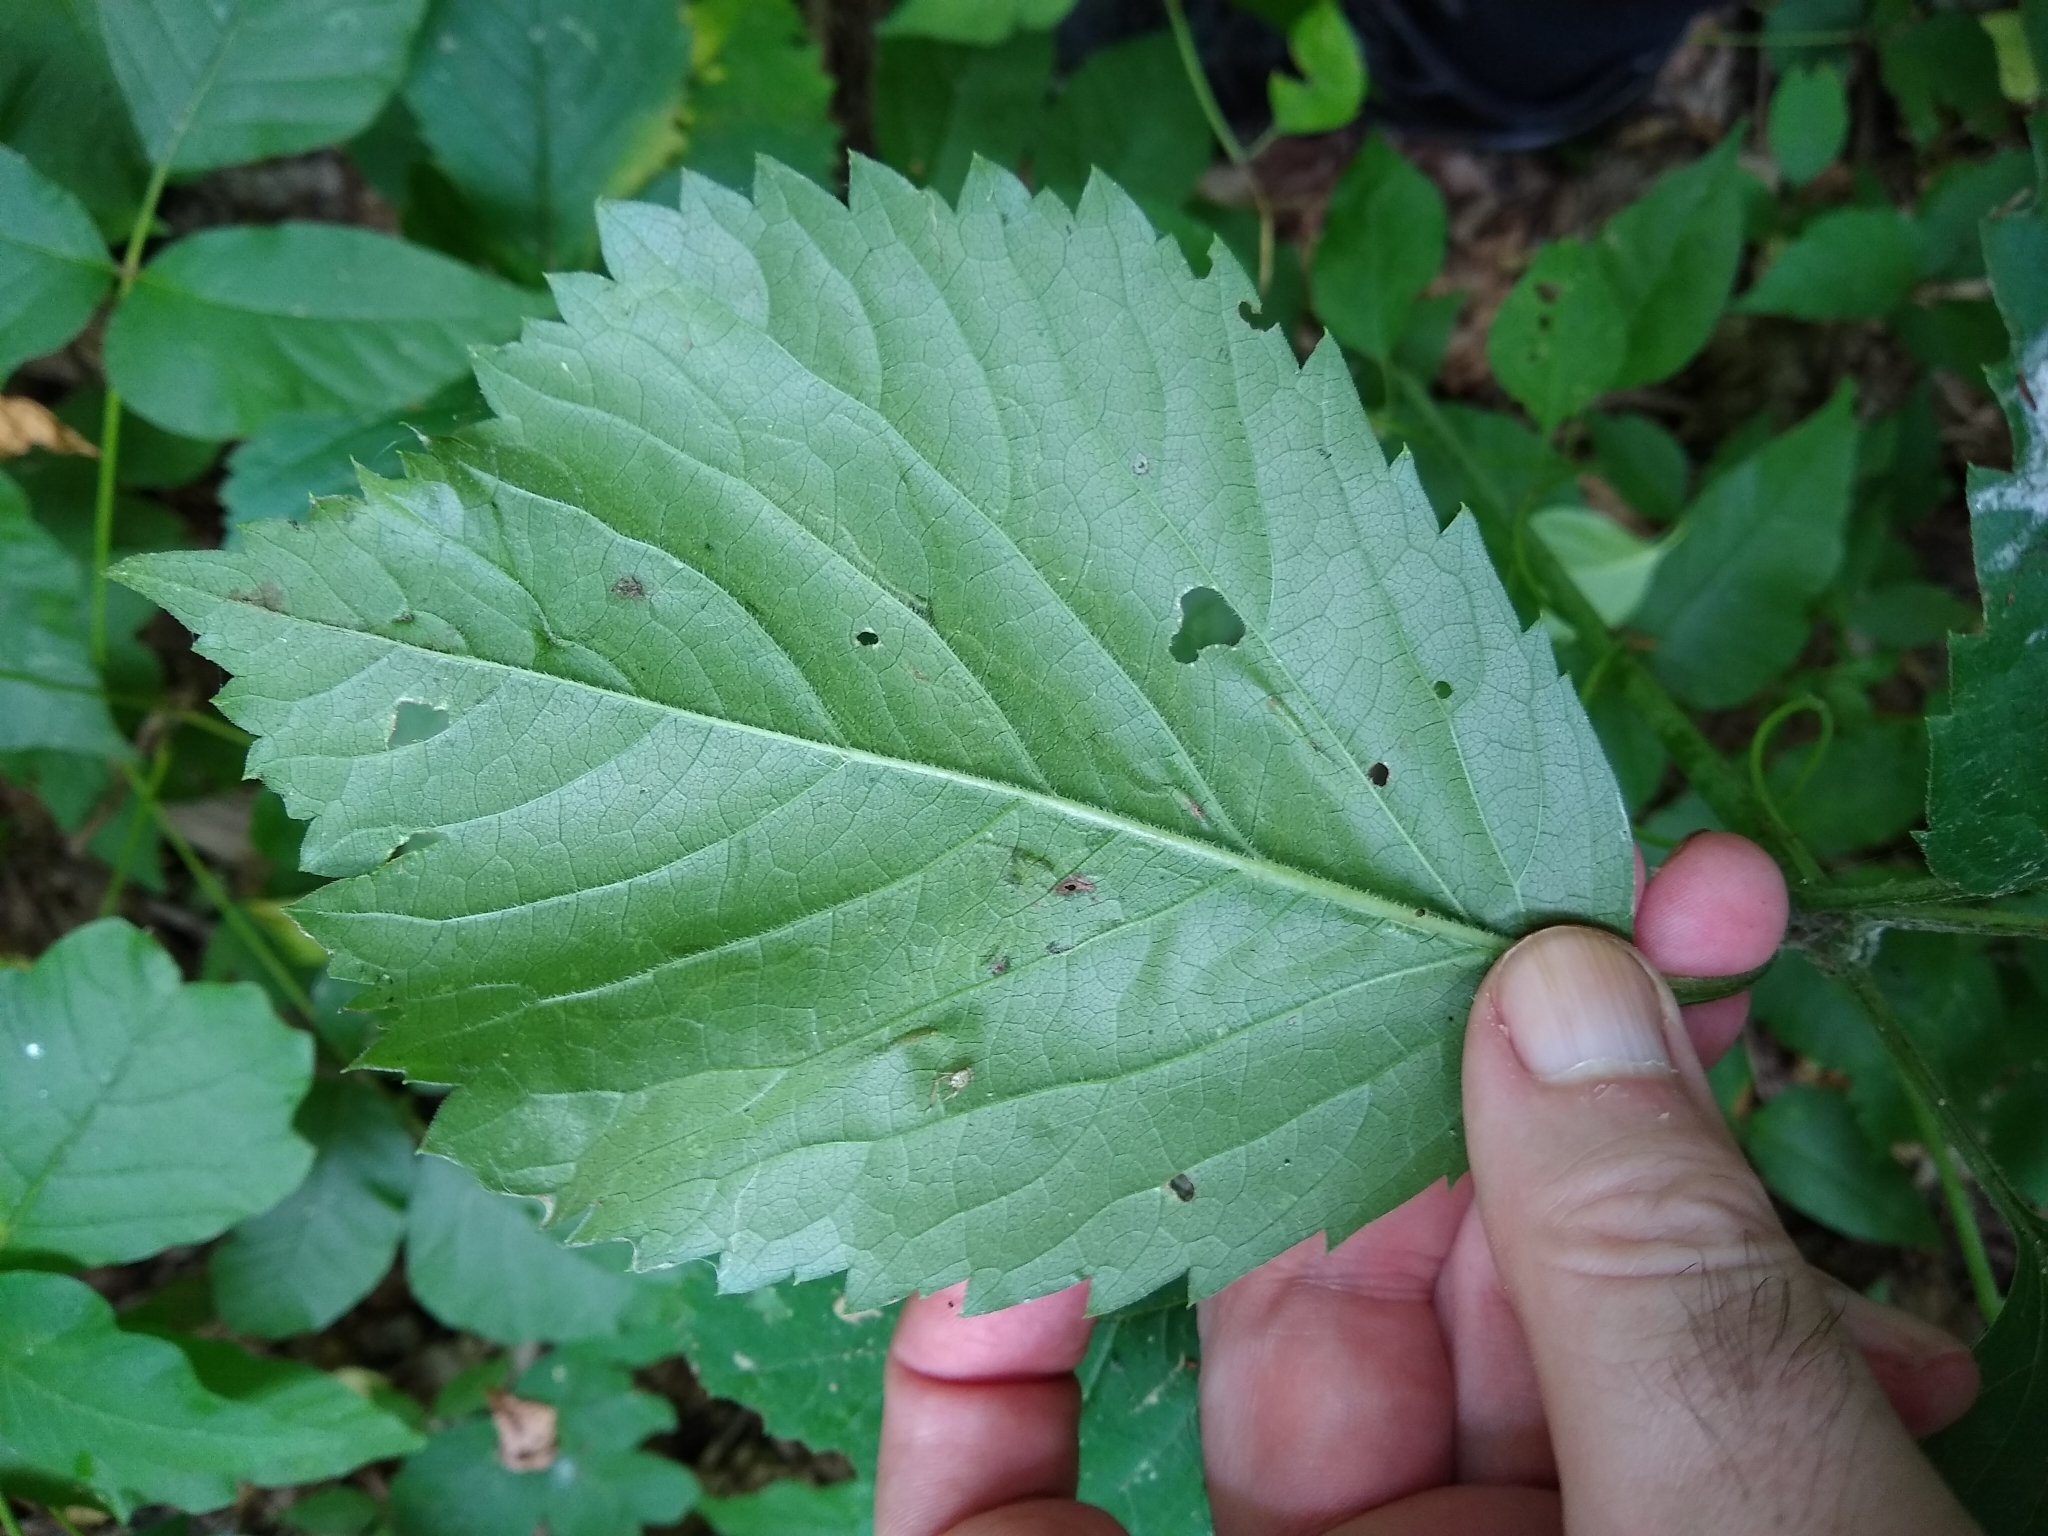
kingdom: Animalia
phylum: Arthropoda
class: Insecta
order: Lepidoptera
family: Gracillariidae
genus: Phyllocnistis
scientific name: Phyllocnistis vitifoliella
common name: Grape leaf-miner moth
